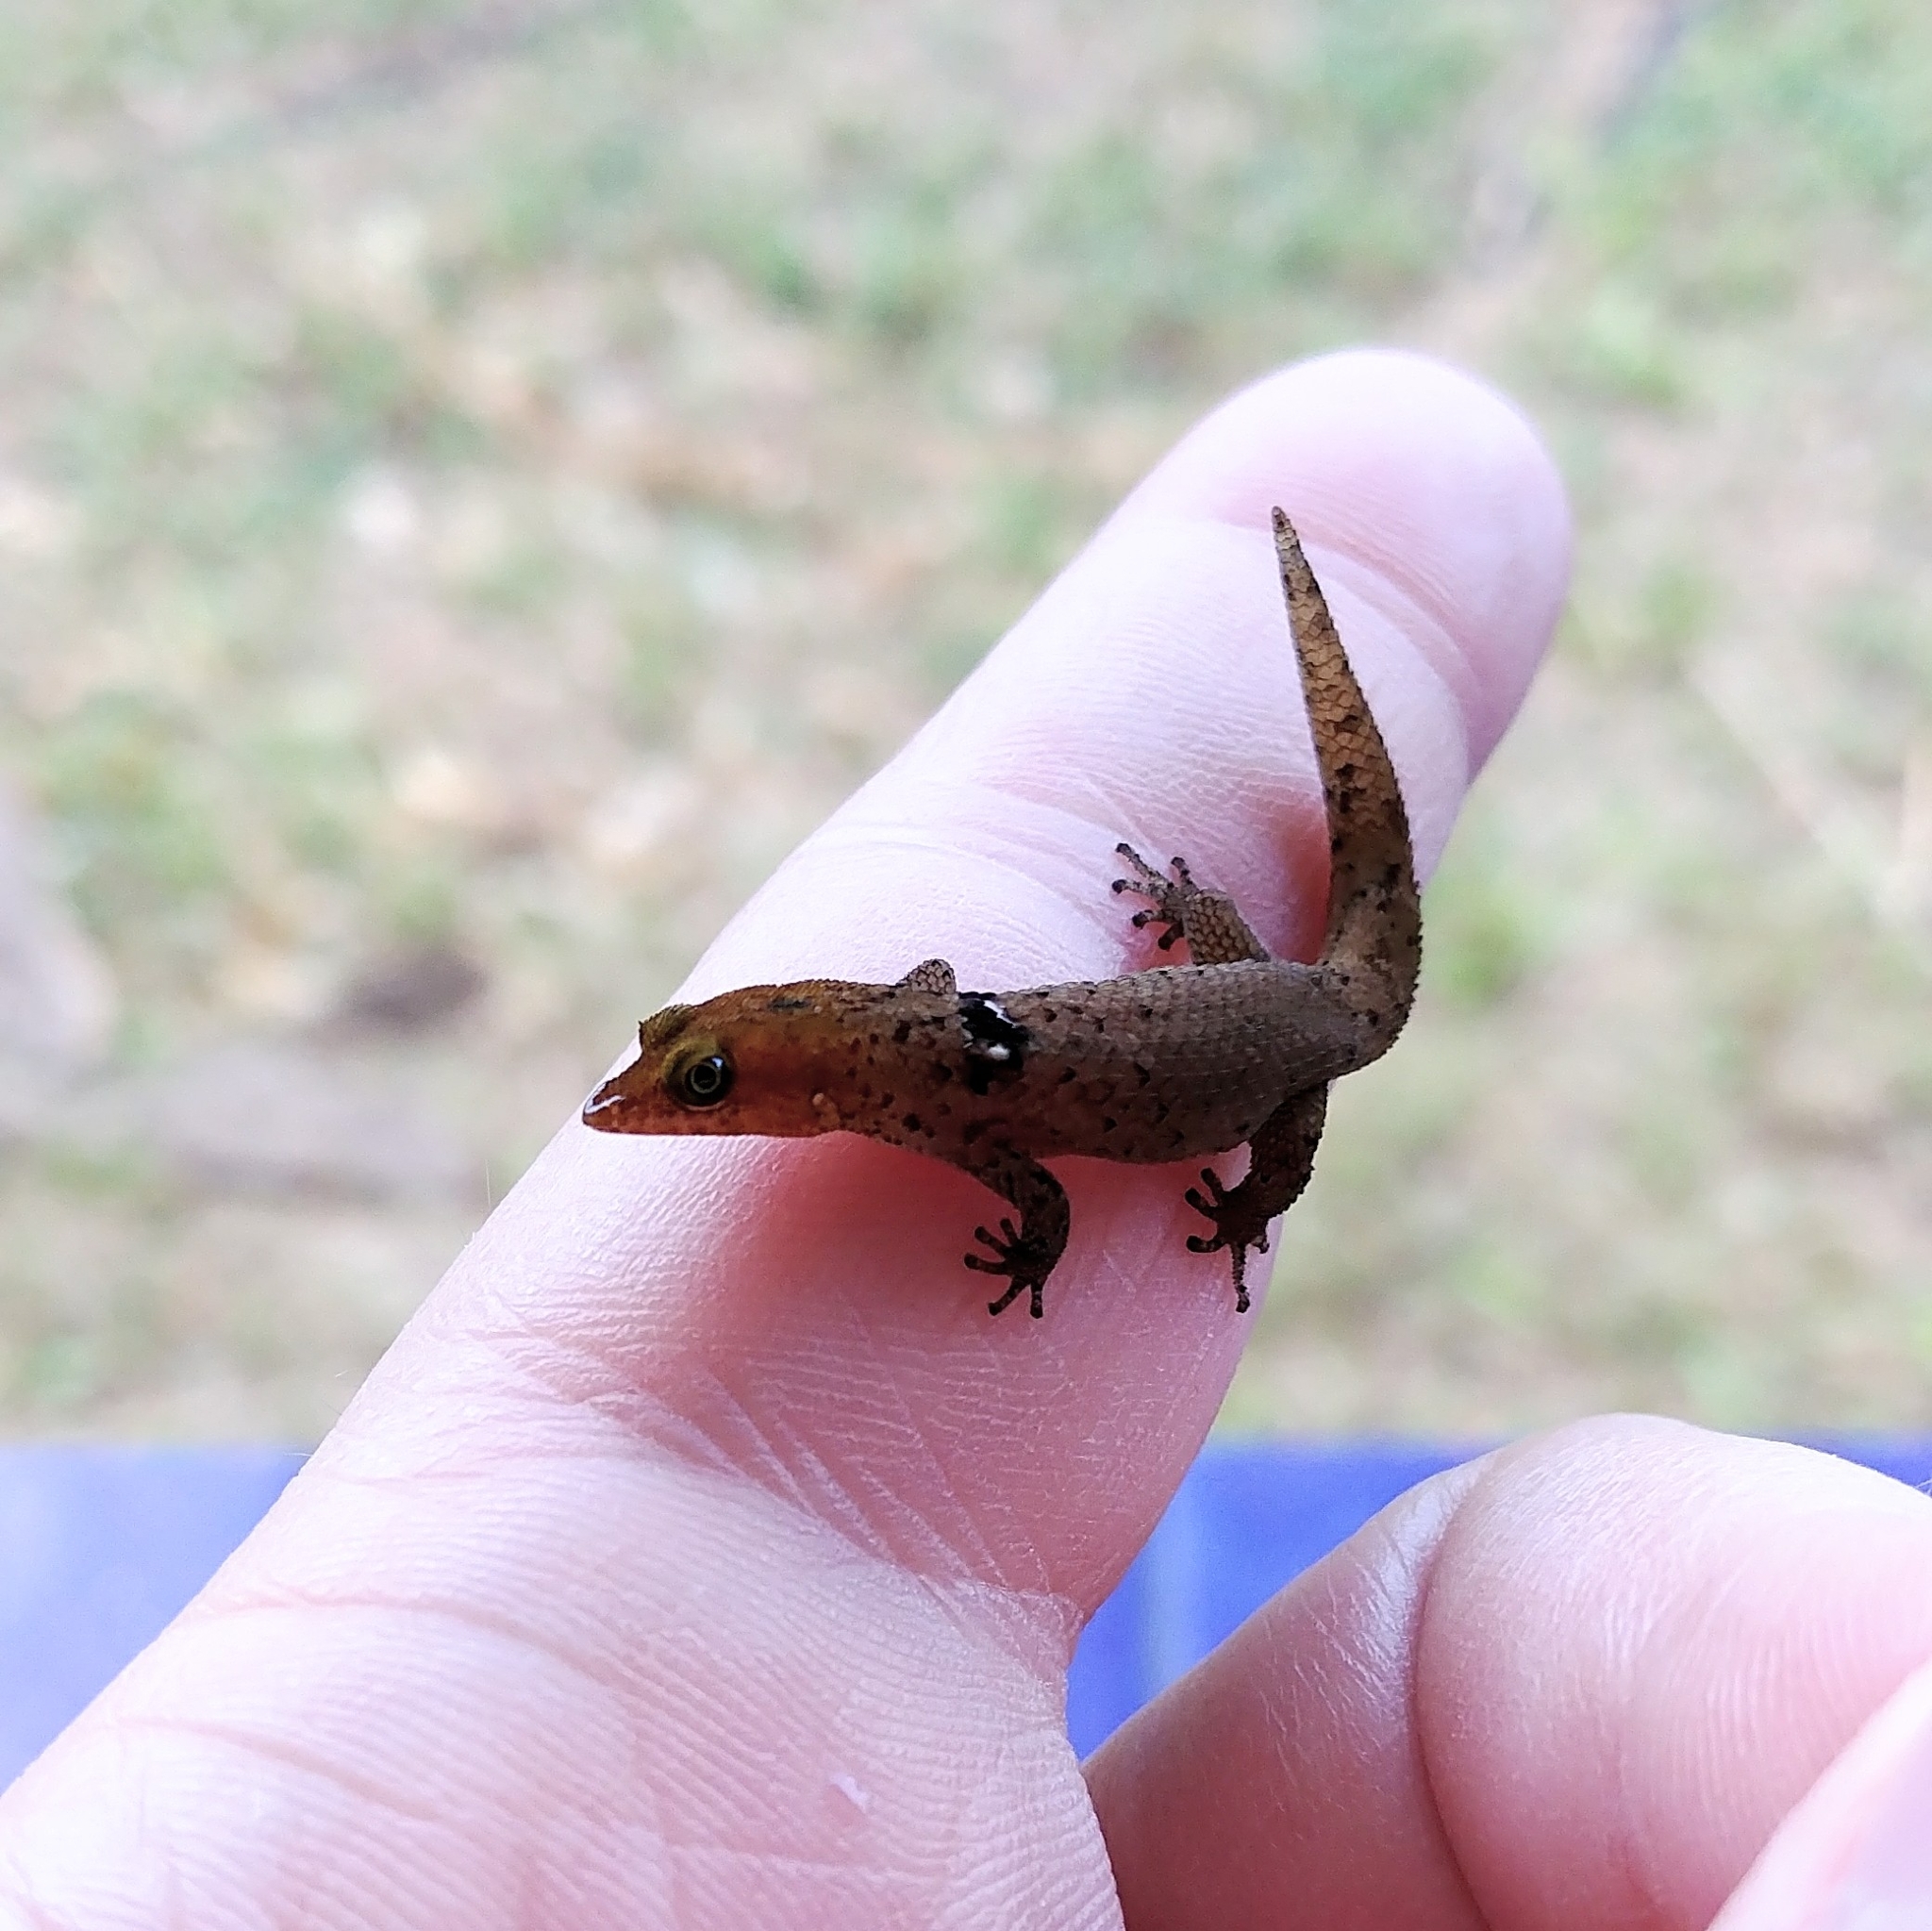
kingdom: Animalia
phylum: Chordata
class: Squamata
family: Sphaerodactylidae
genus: Sphaerodactylus
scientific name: Sphaerodactylus inigoi
